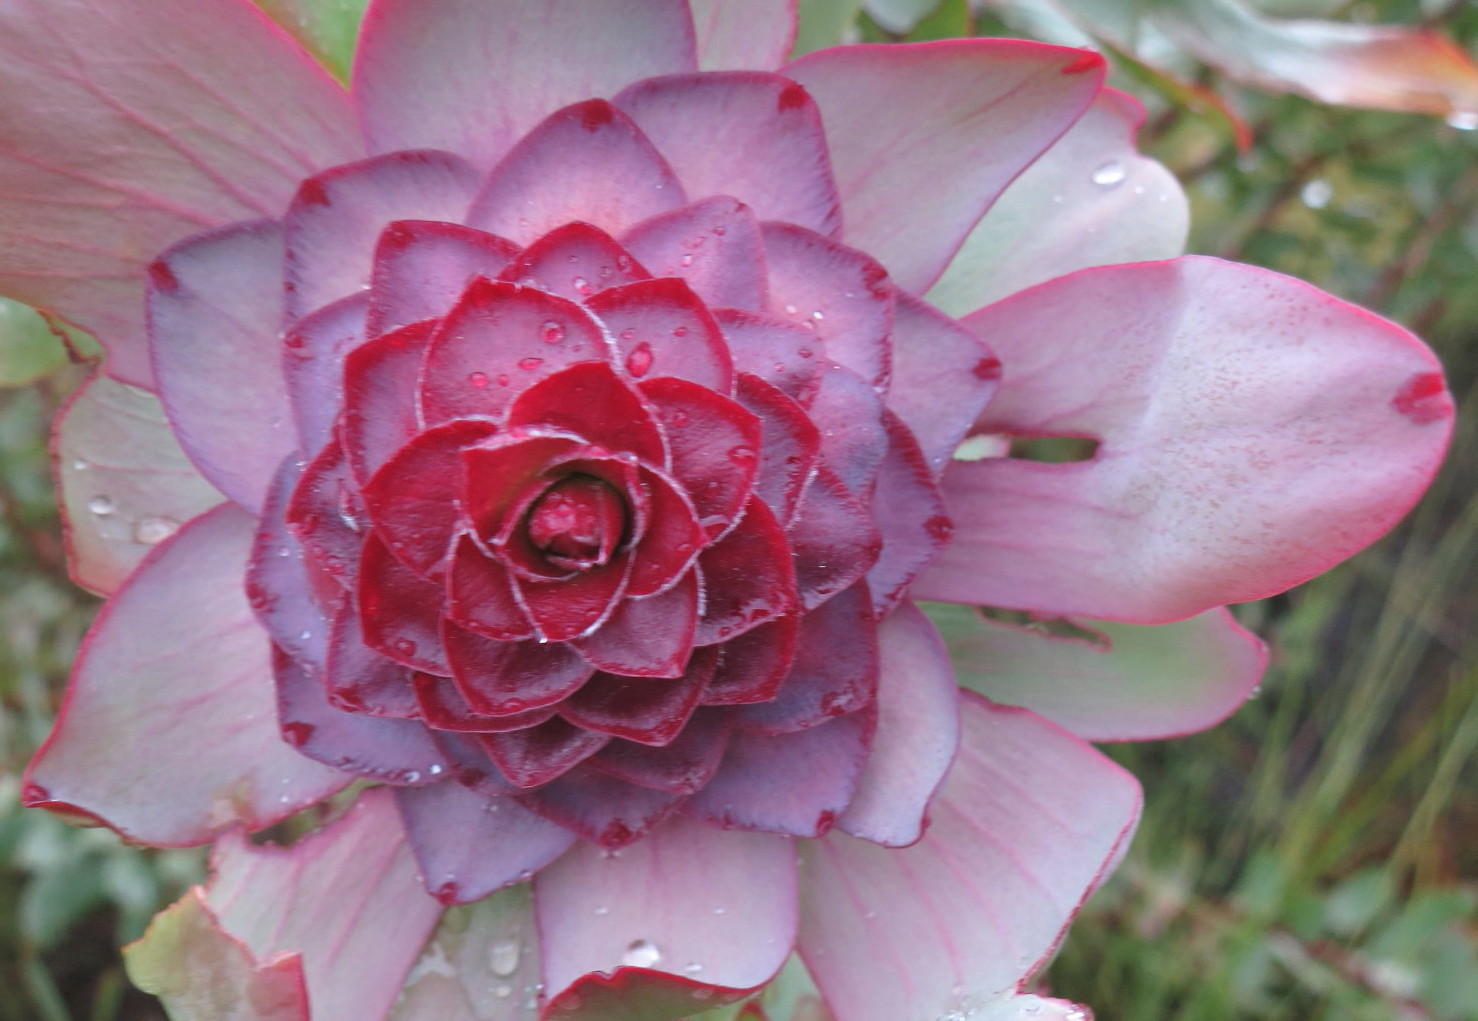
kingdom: Plantae
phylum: Tracheophyta
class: Magnoliopsida
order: Proteales
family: Proteaceae
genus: Leucadendron
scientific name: Leucadendron tinctum
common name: Spicy conebush
